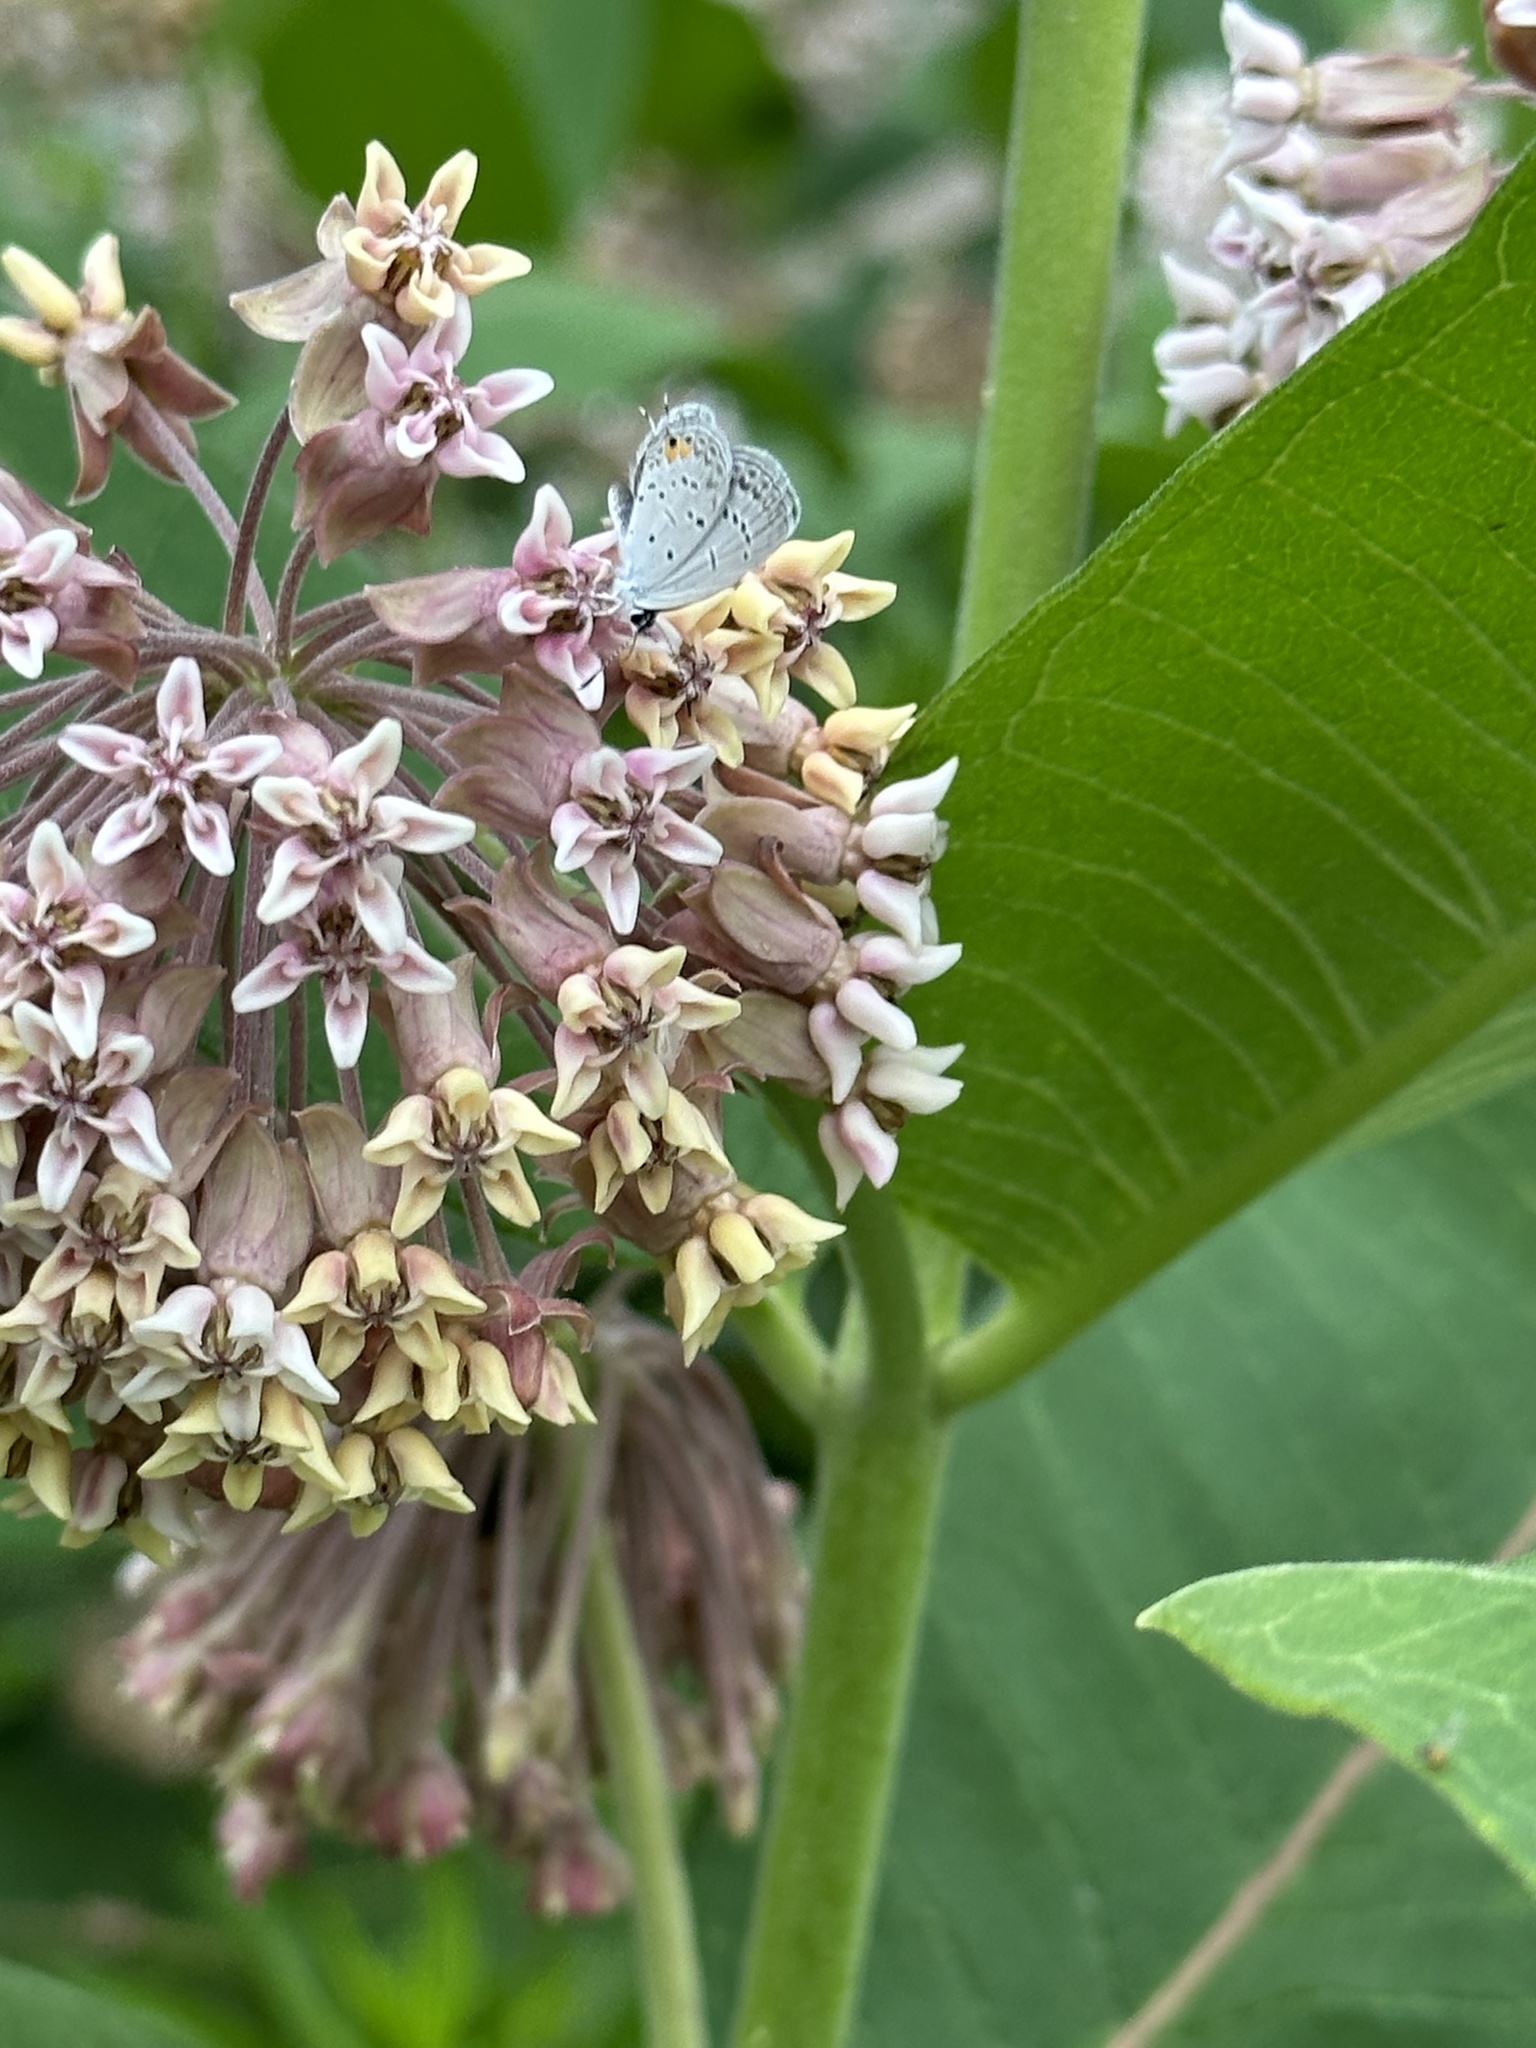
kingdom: Animalia
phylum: Arthropoda
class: Insecta
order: Lepidoptera
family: Lycaenidae
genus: Elkalyce
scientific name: Elkalyce comyntas
